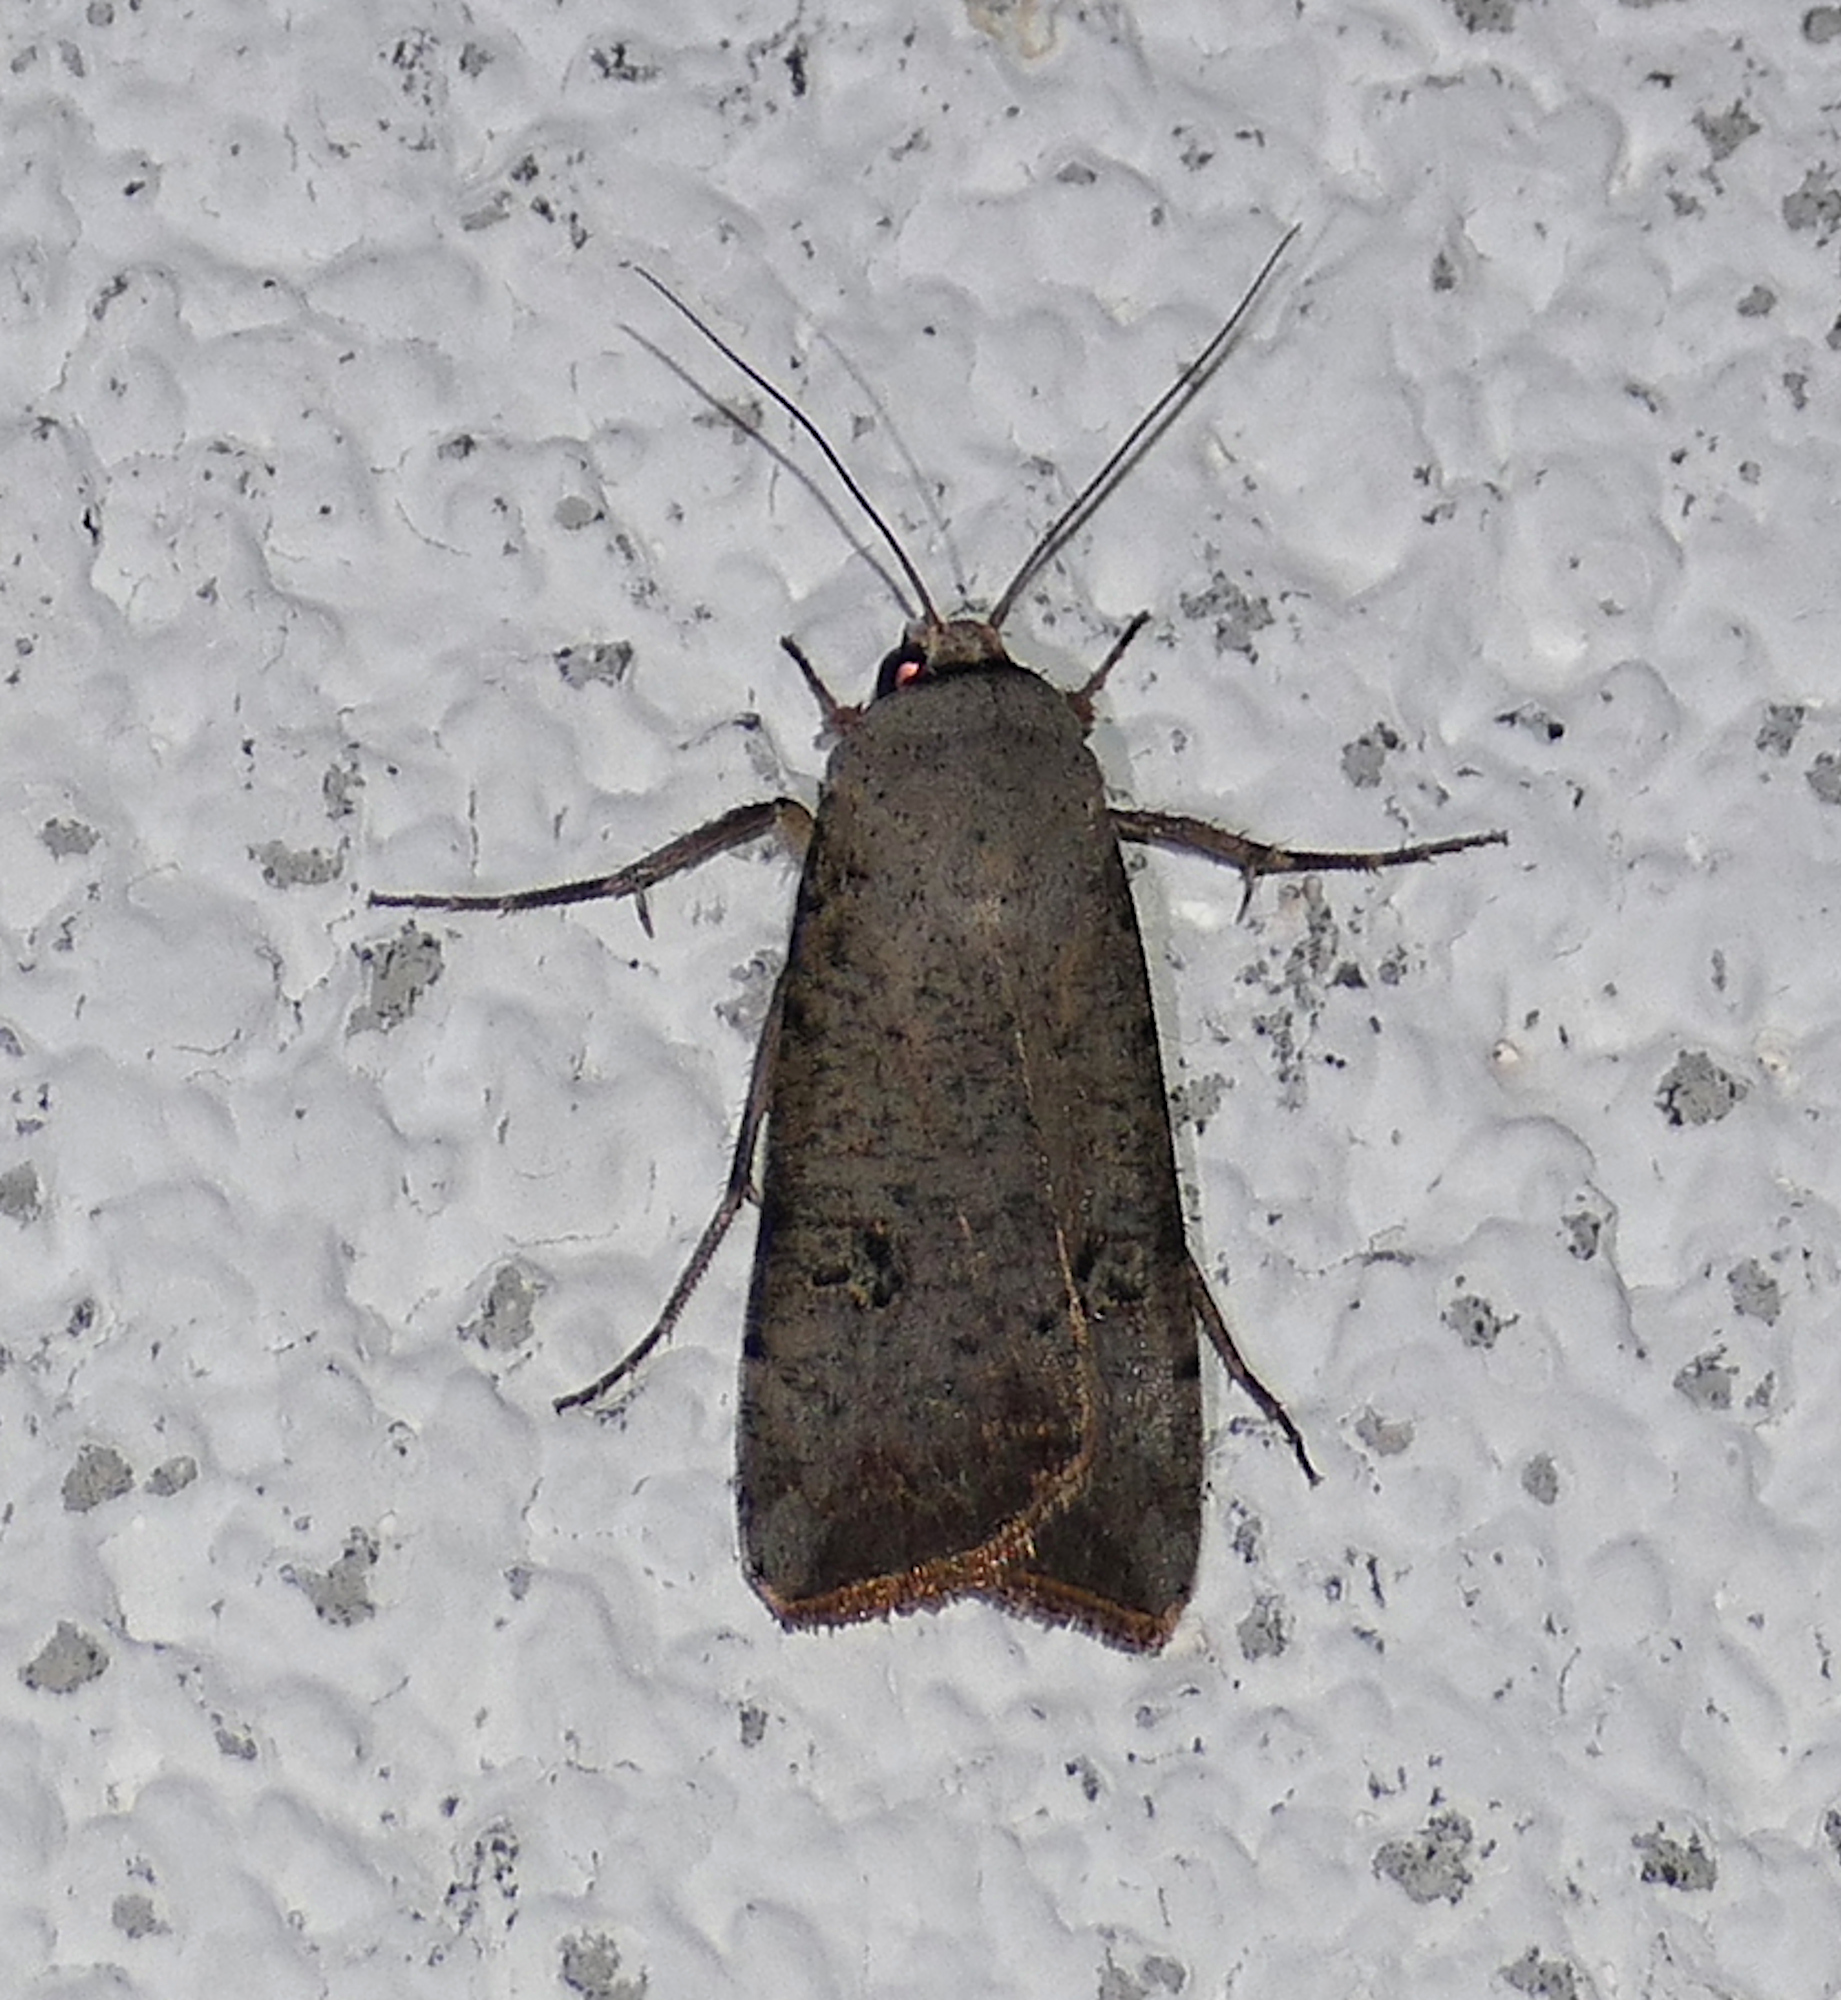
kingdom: Animalia
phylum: Arthropoda
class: Insecta
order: Lepidoptera
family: Noctuidae
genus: Anicla
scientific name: Anicla infecta
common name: Green cutworm
